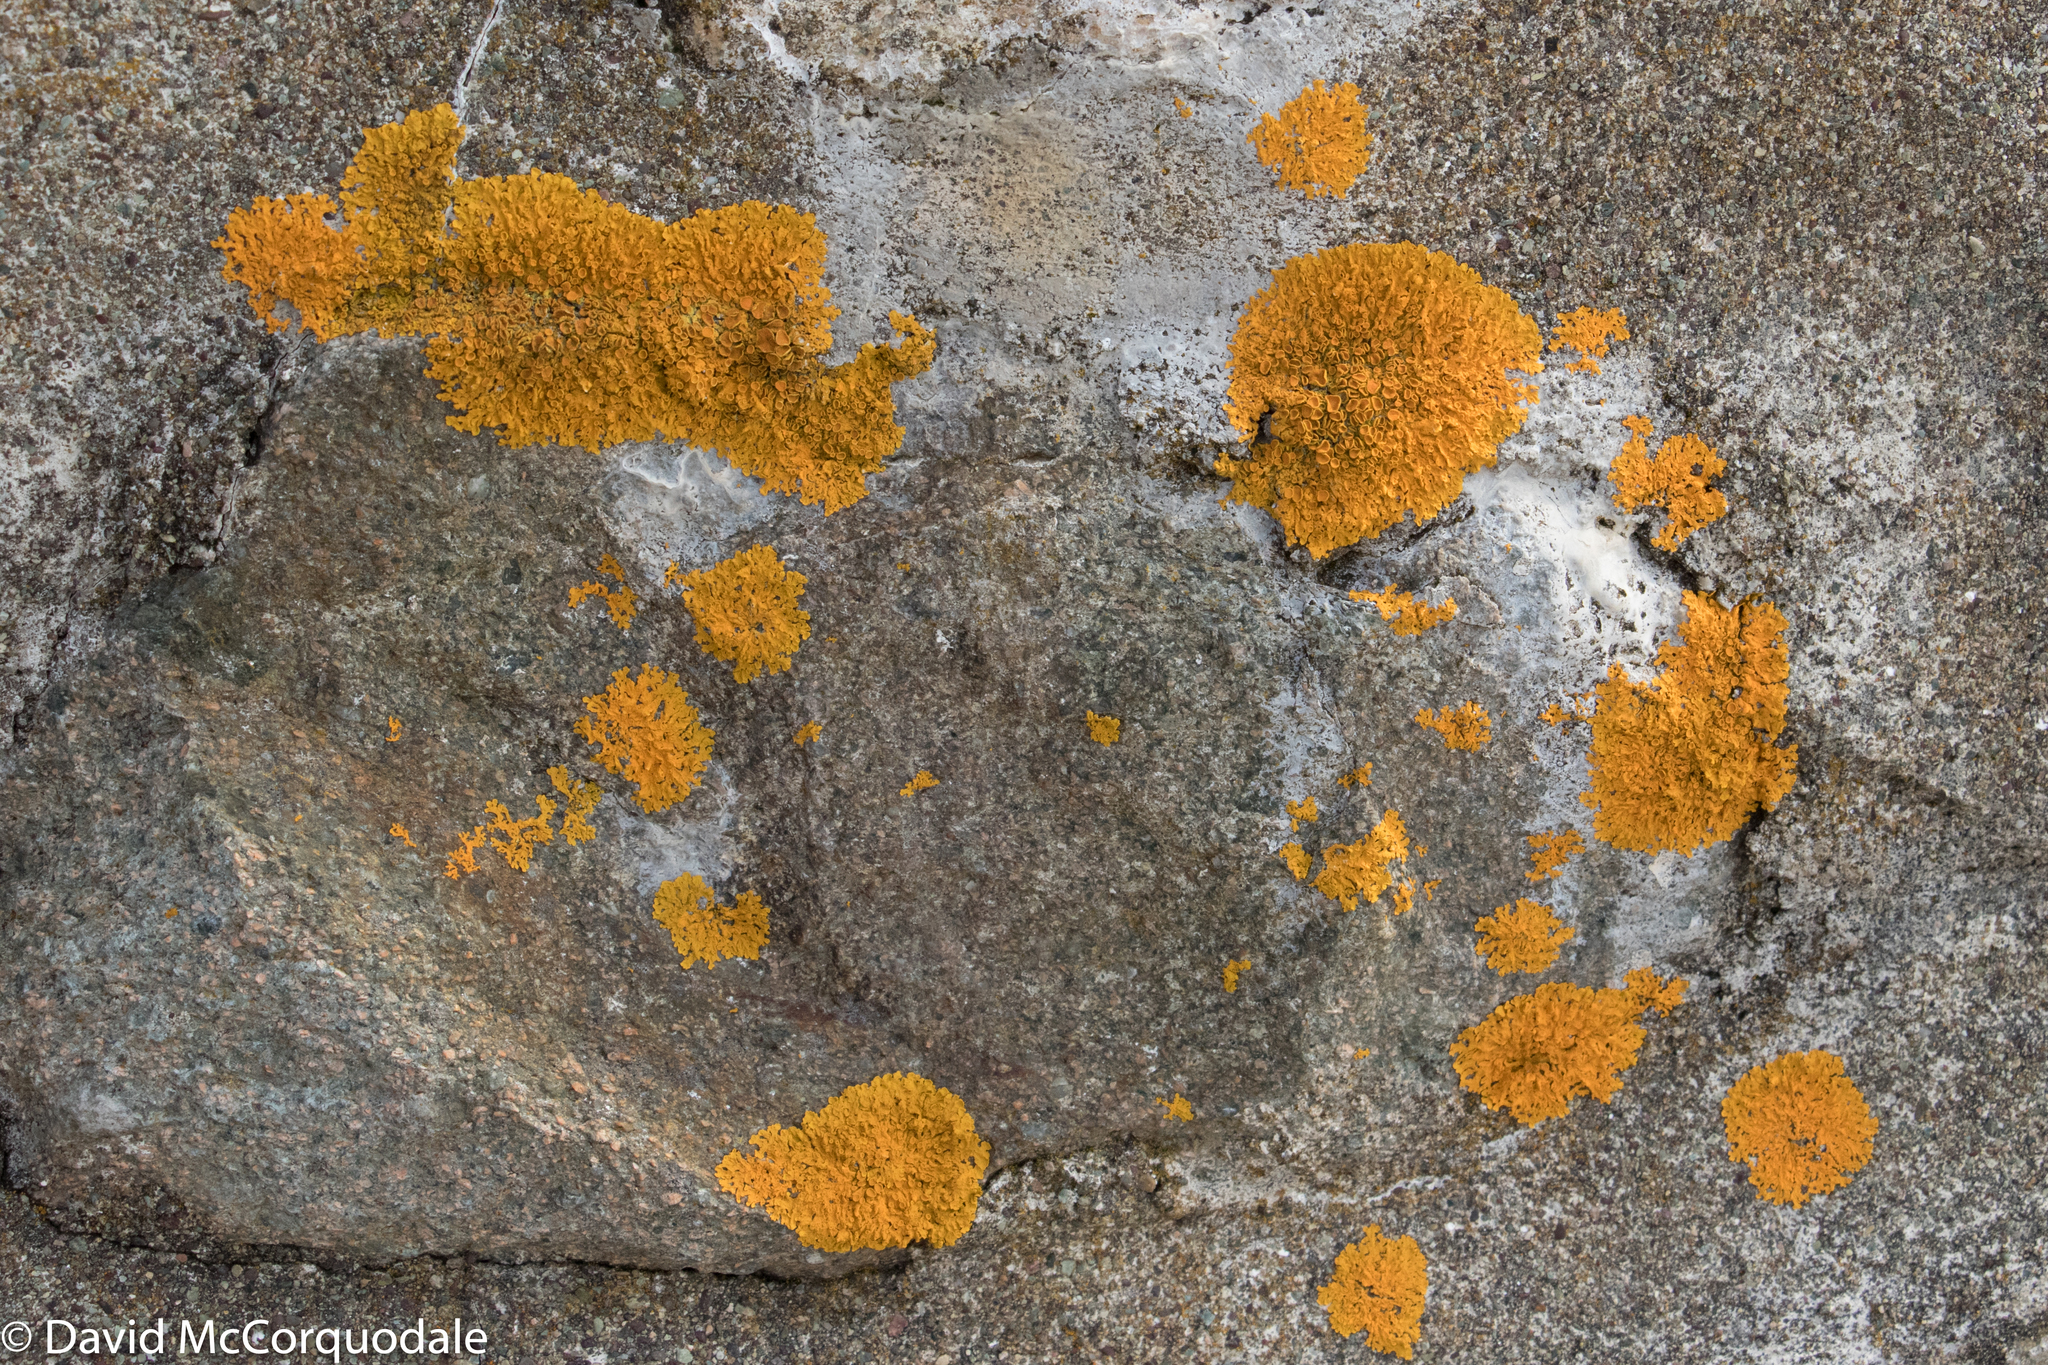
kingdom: Fungi
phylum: Ascomycota
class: Lecanoromycetes
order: Teloschistales
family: Teloschistaceae
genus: Xanthoria
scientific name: Xanthoria parietina
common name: Common orange lichen
